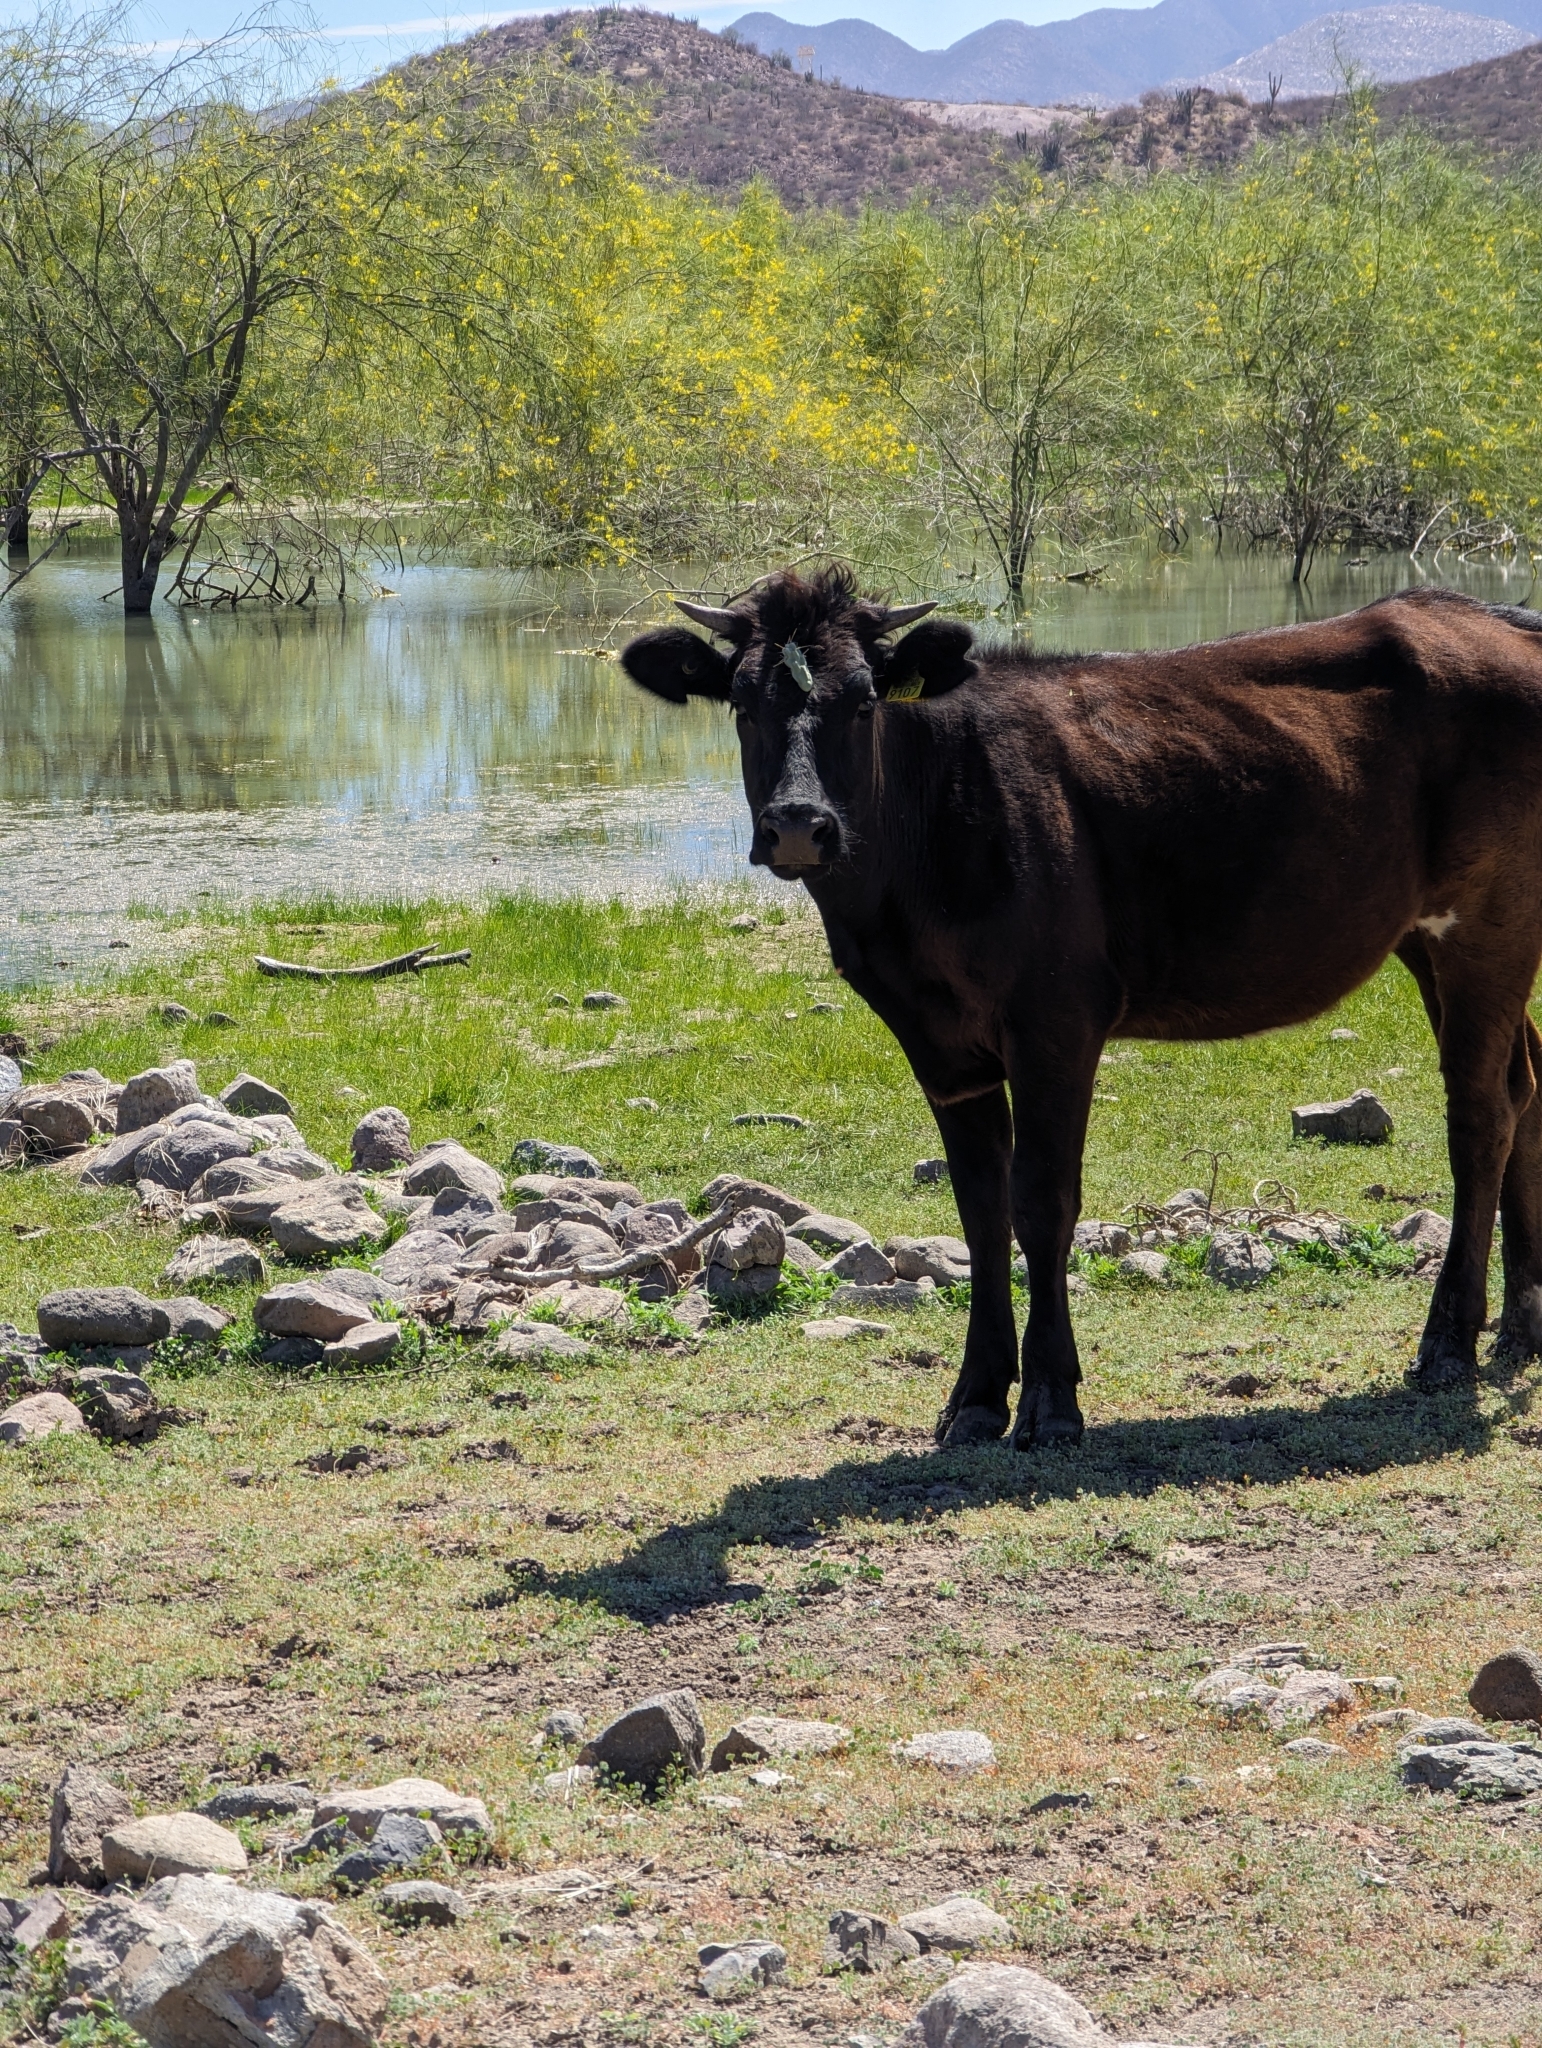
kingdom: Animalia
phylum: Chordata
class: Mammalia
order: Artiodactyla
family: Bovidae
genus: Bos
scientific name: Bos taurus
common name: Domesticated cattle
